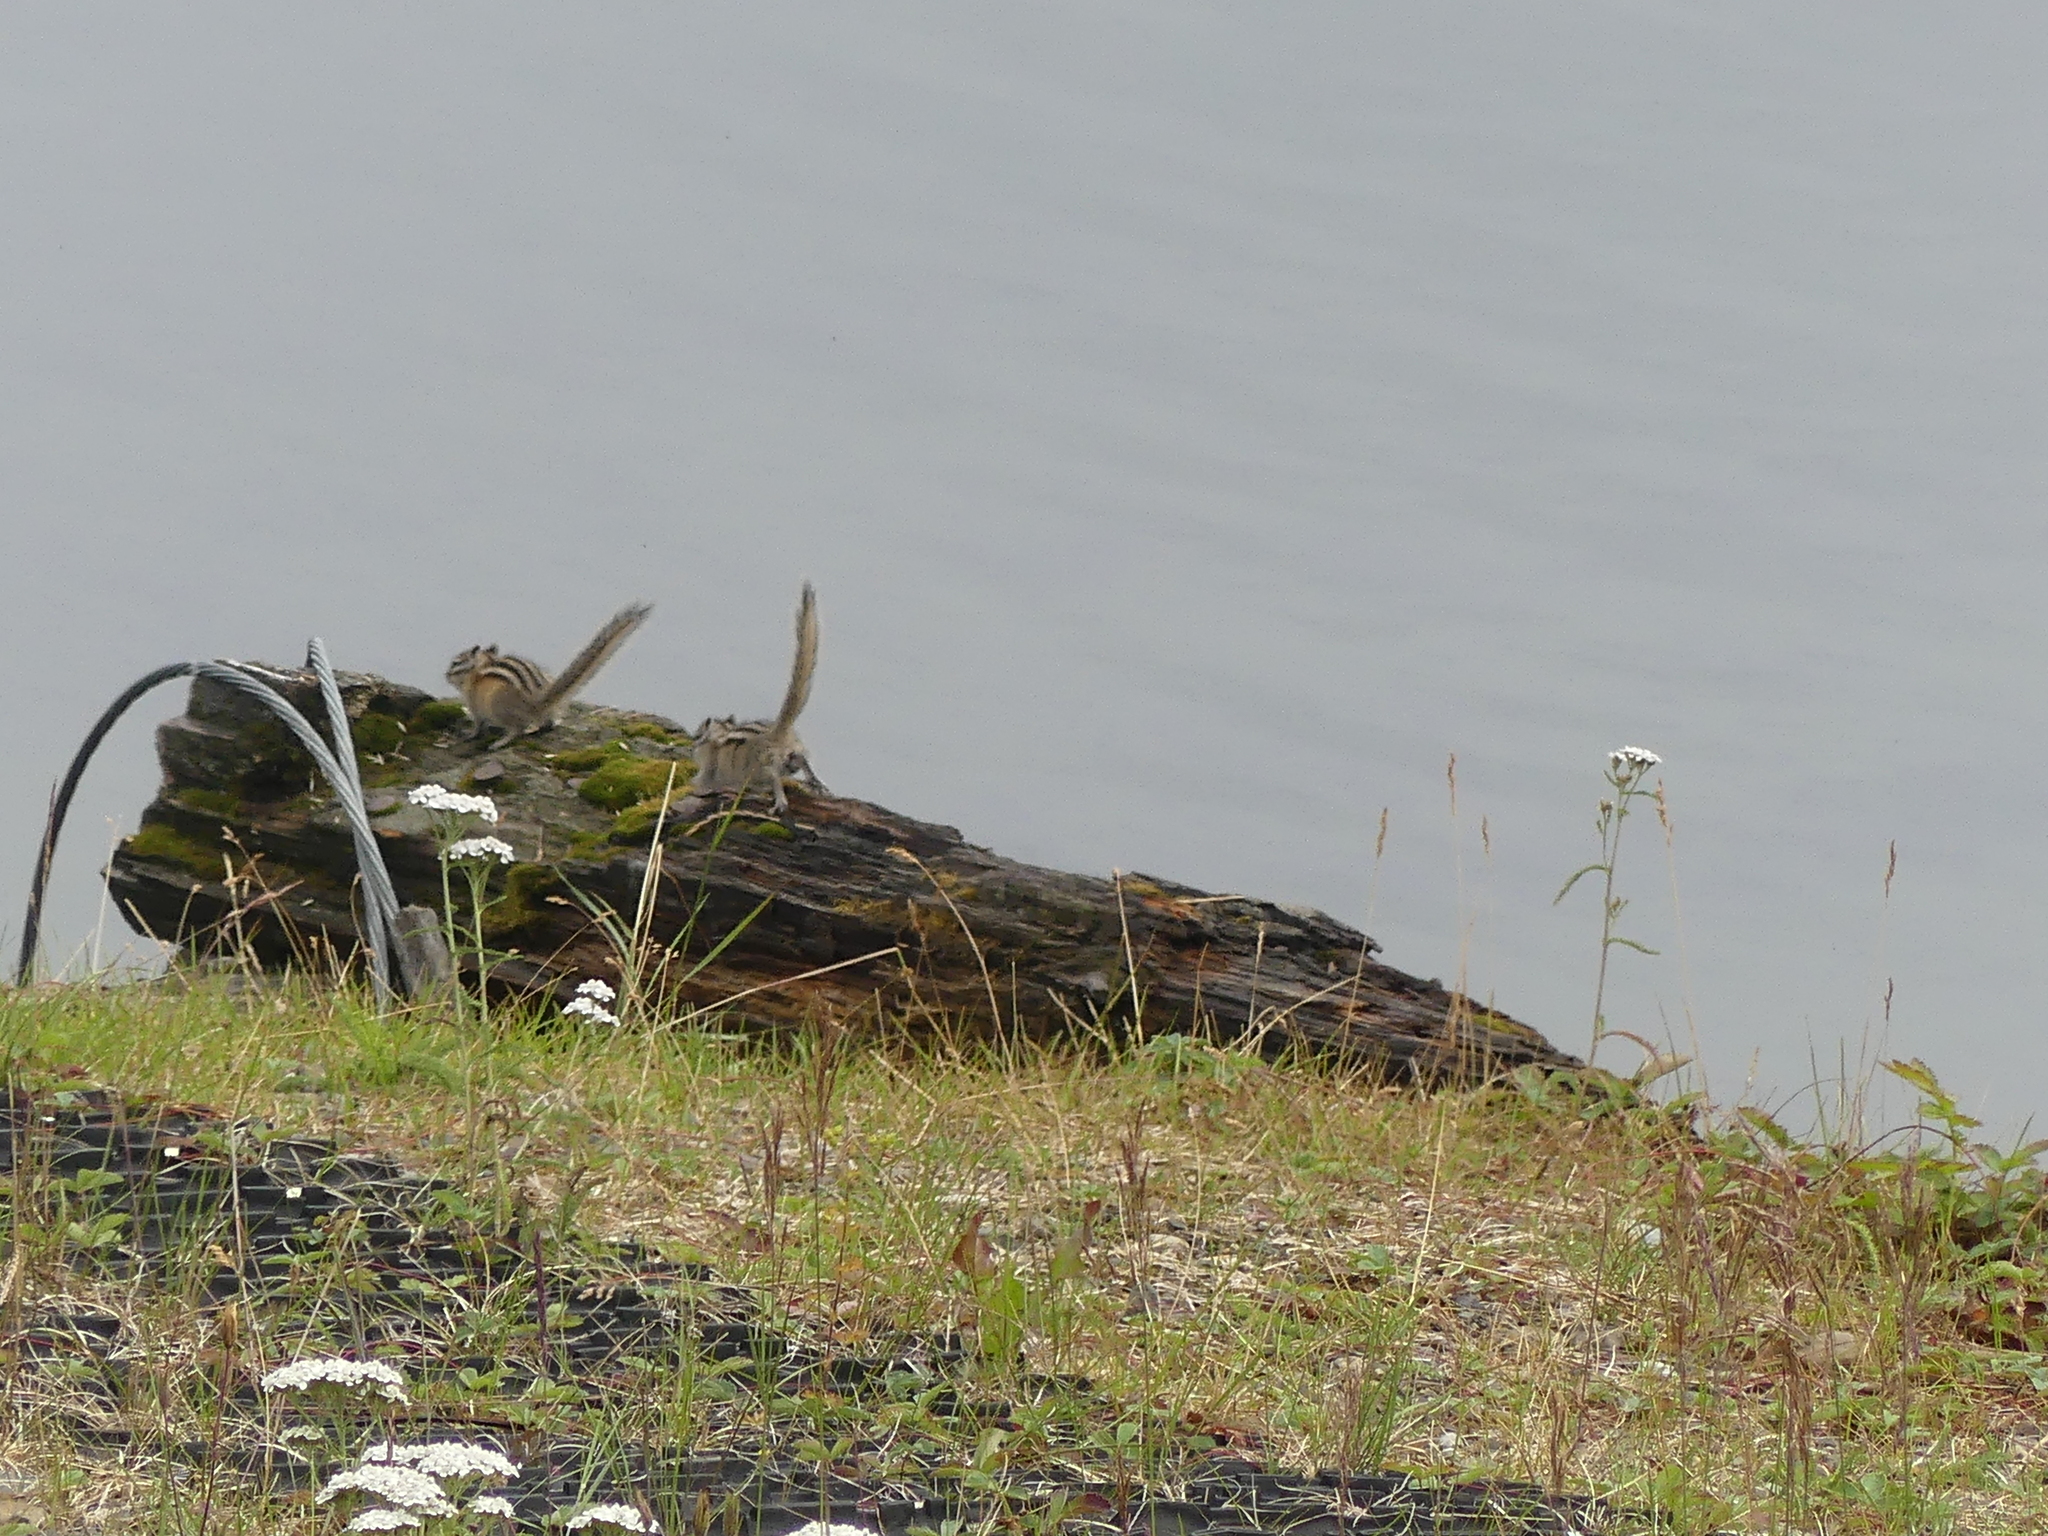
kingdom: Animalia
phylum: Chordata
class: Mammalia
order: Rodentia
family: Sciuridae
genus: Tamias
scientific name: Tamias minimus
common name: Least chipmunk
